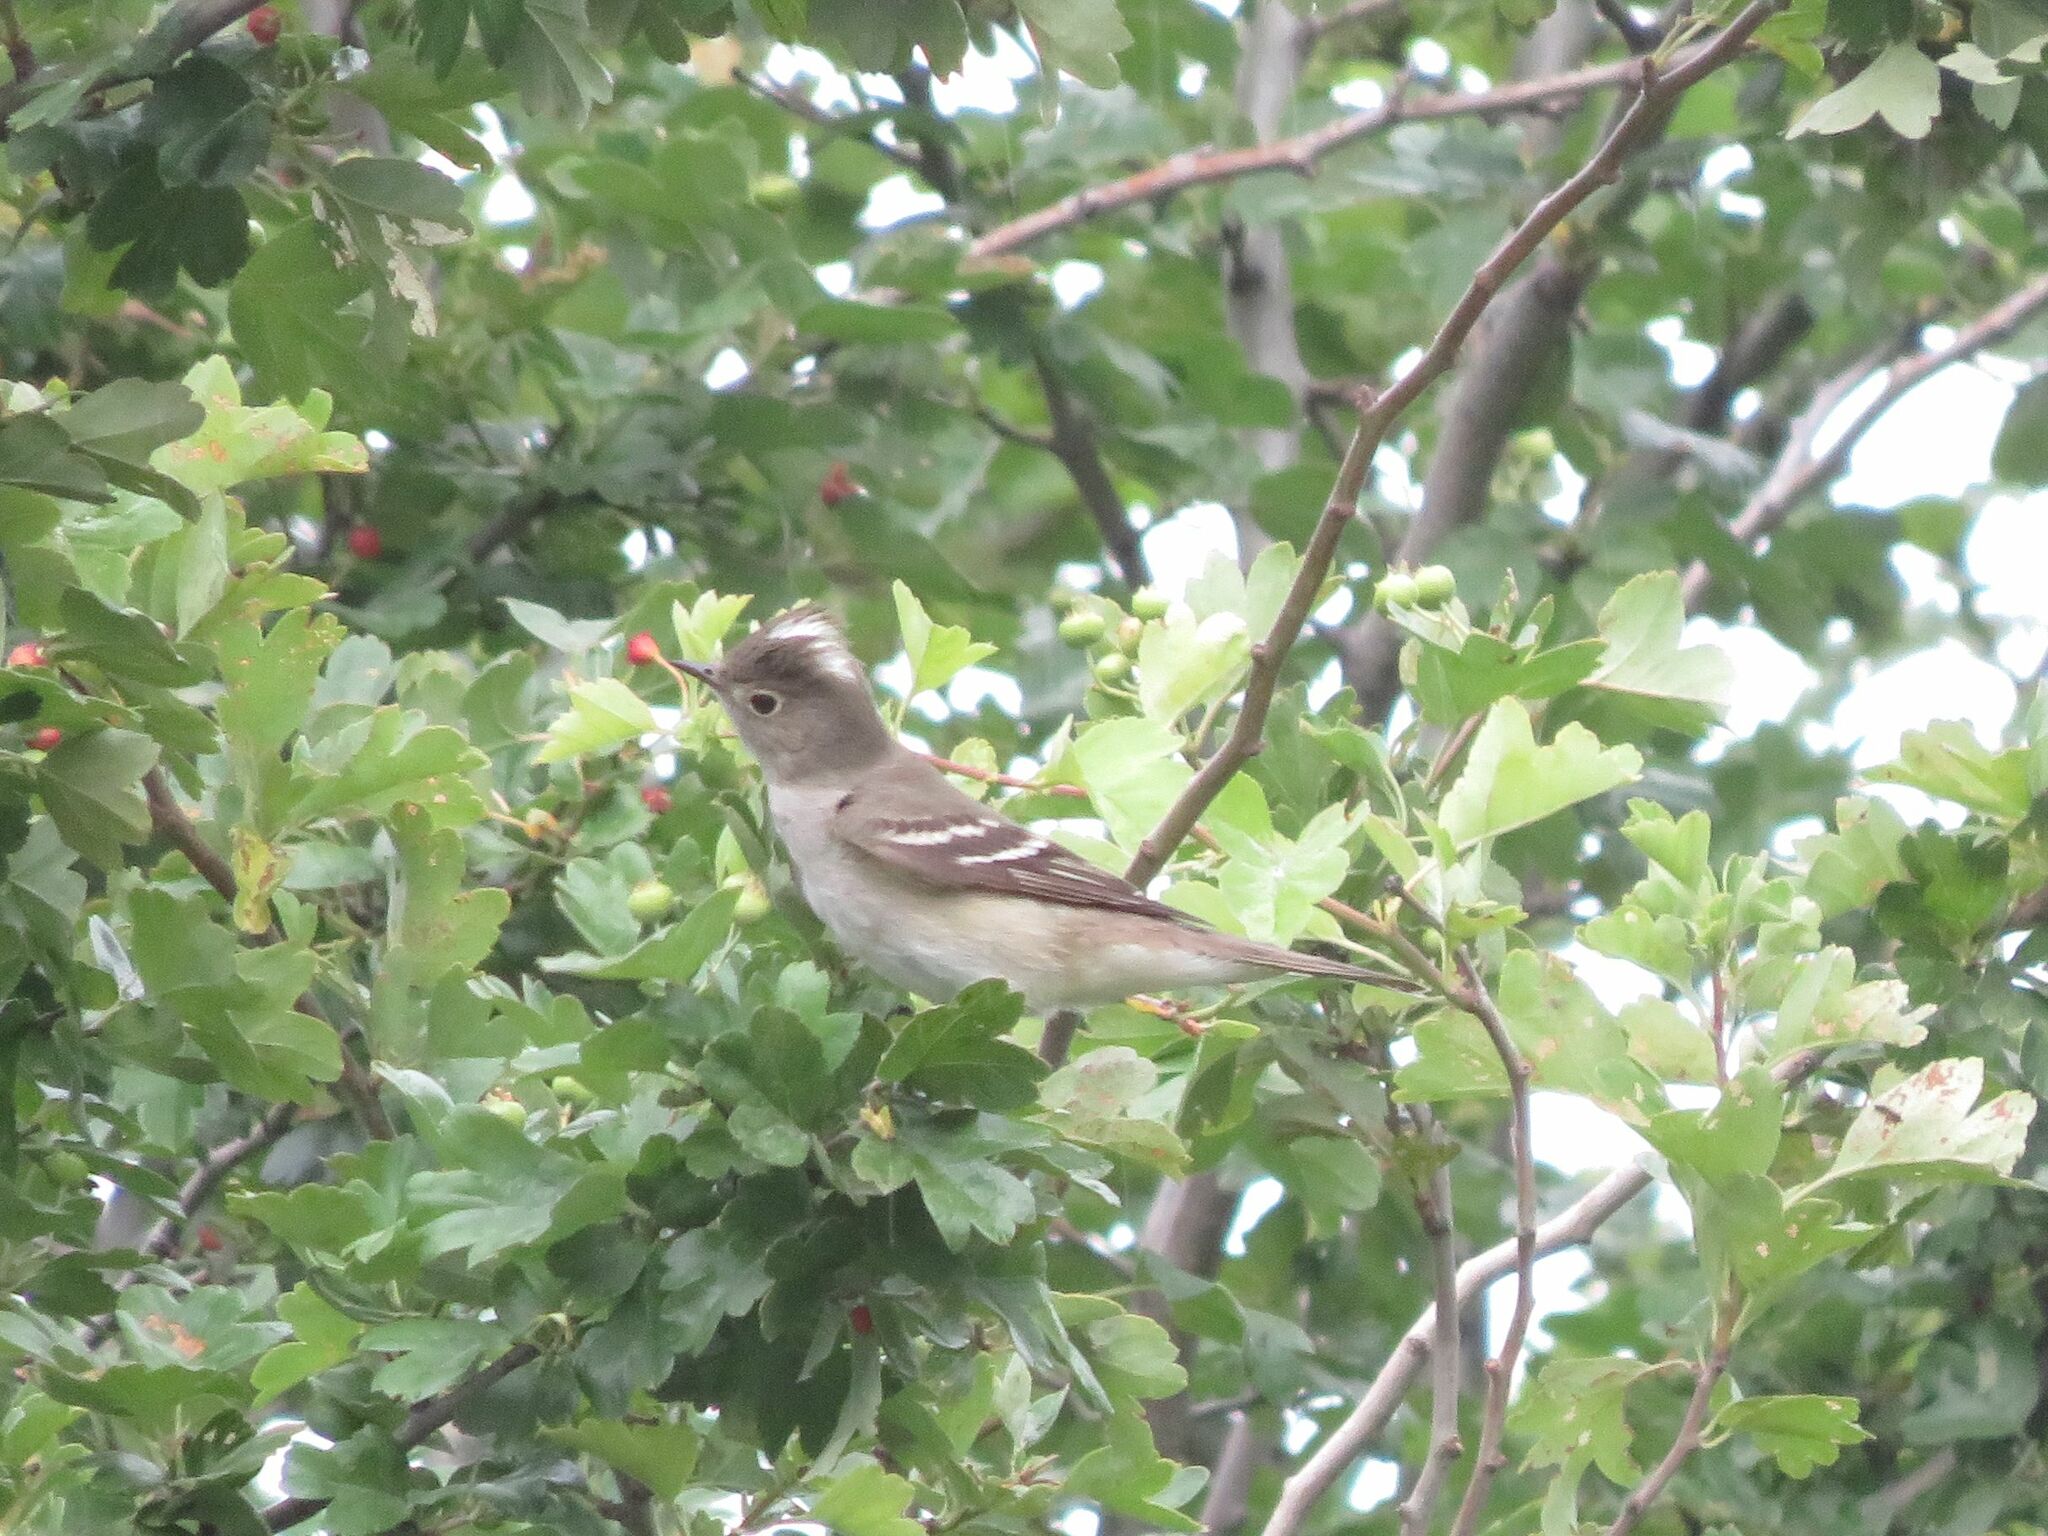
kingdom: Animalia
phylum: Chordata
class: Aves
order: Passeriformes
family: Tyrannidae
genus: Elaenia
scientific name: Elaenia albiceps
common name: White-crested elaenia
